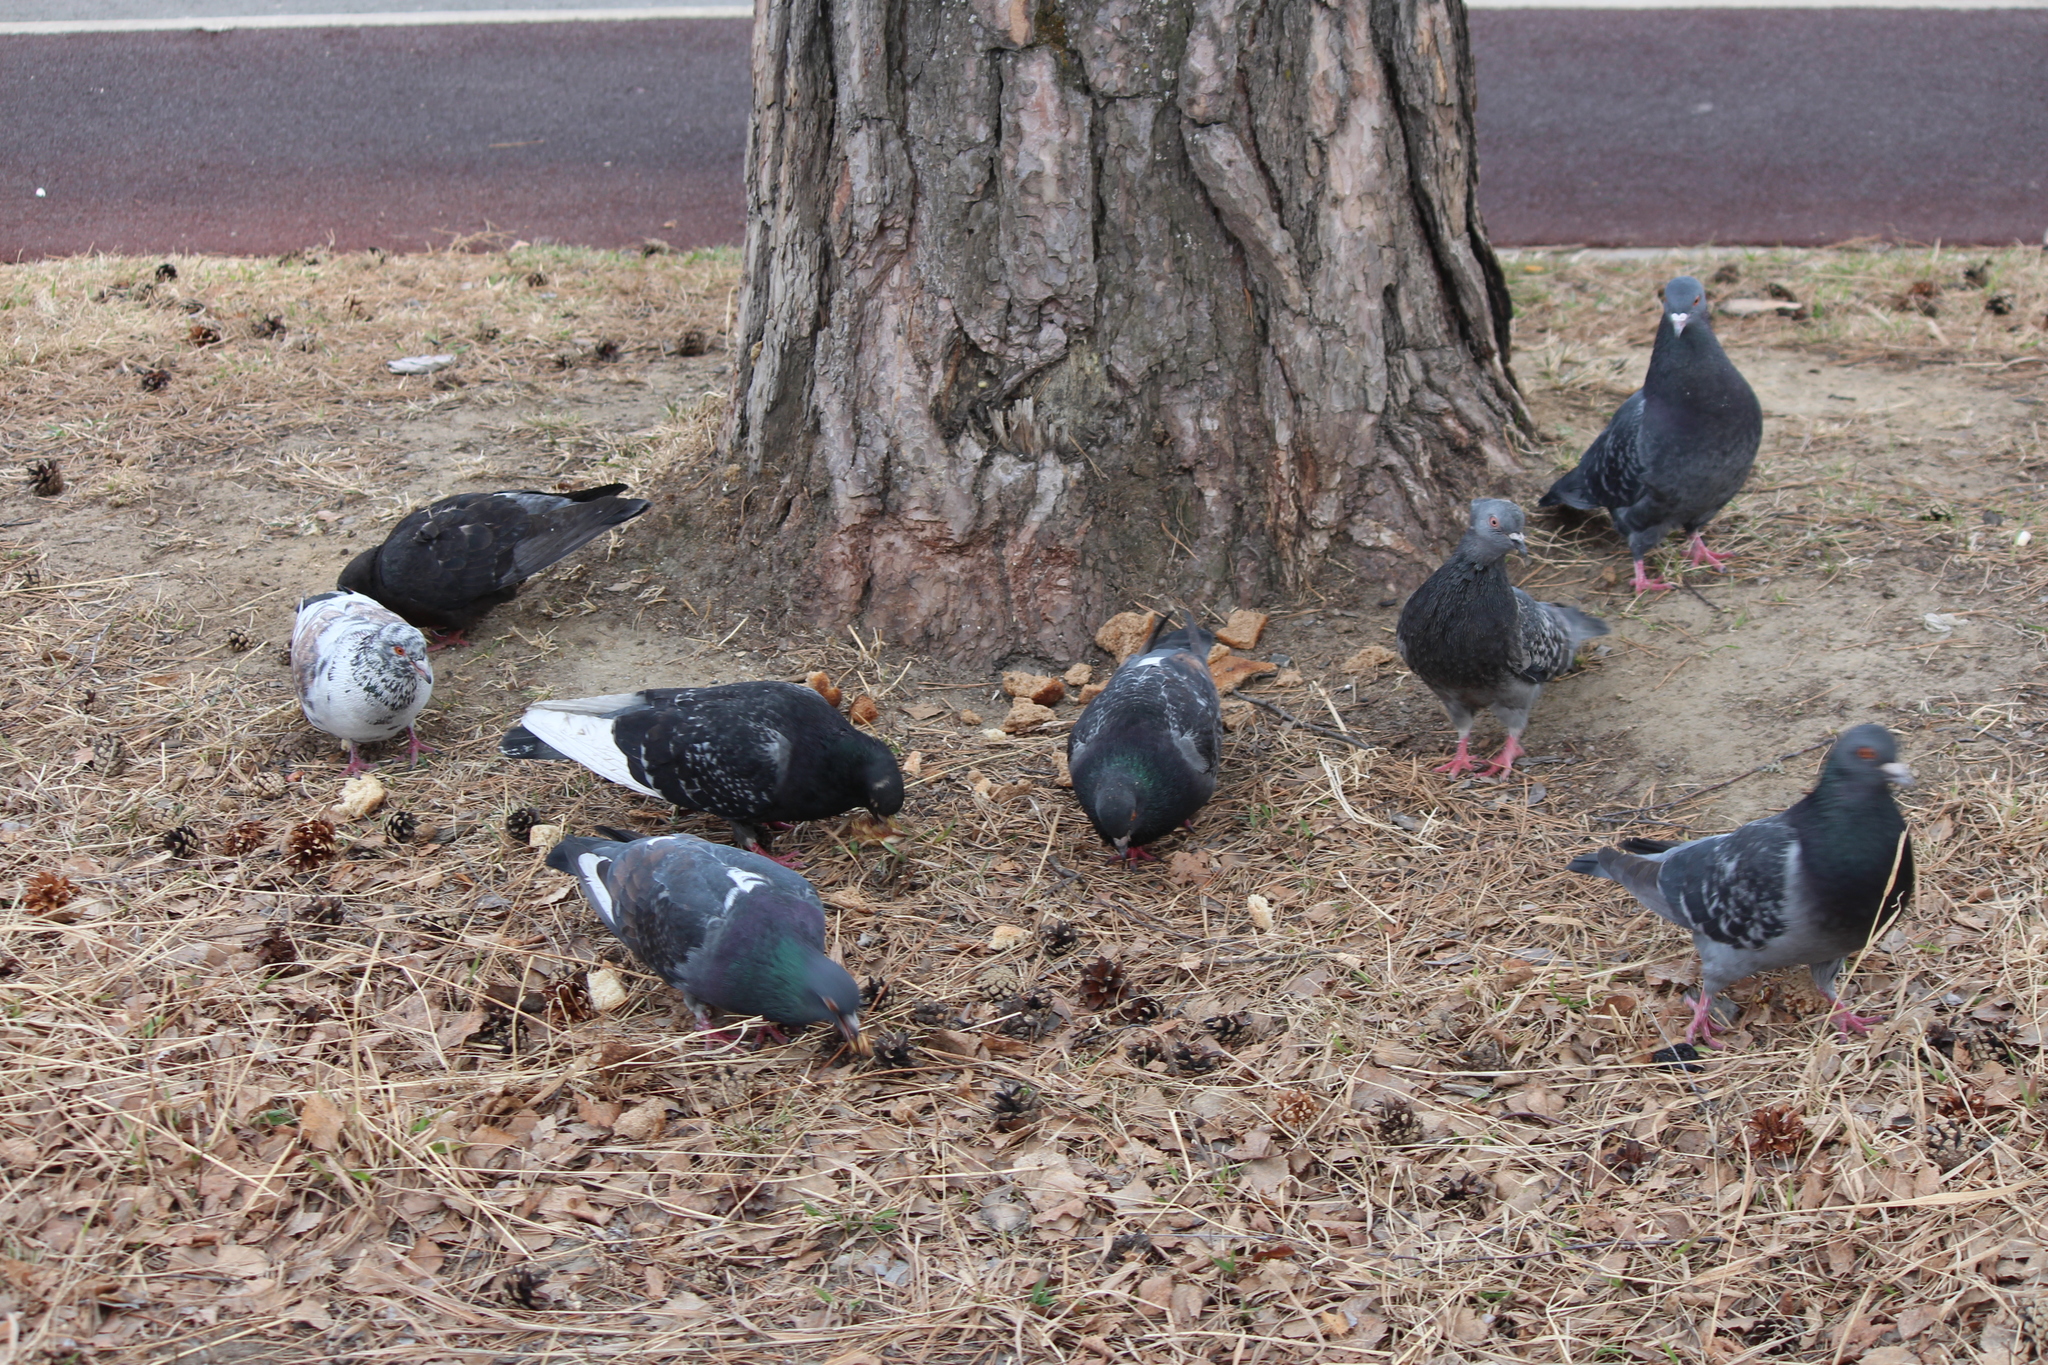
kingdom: Animalia
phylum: Chordata
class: Aves
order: Columbiformes
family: Columbidae
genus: Columba
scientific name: Columba livia
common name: Rock pigeon
